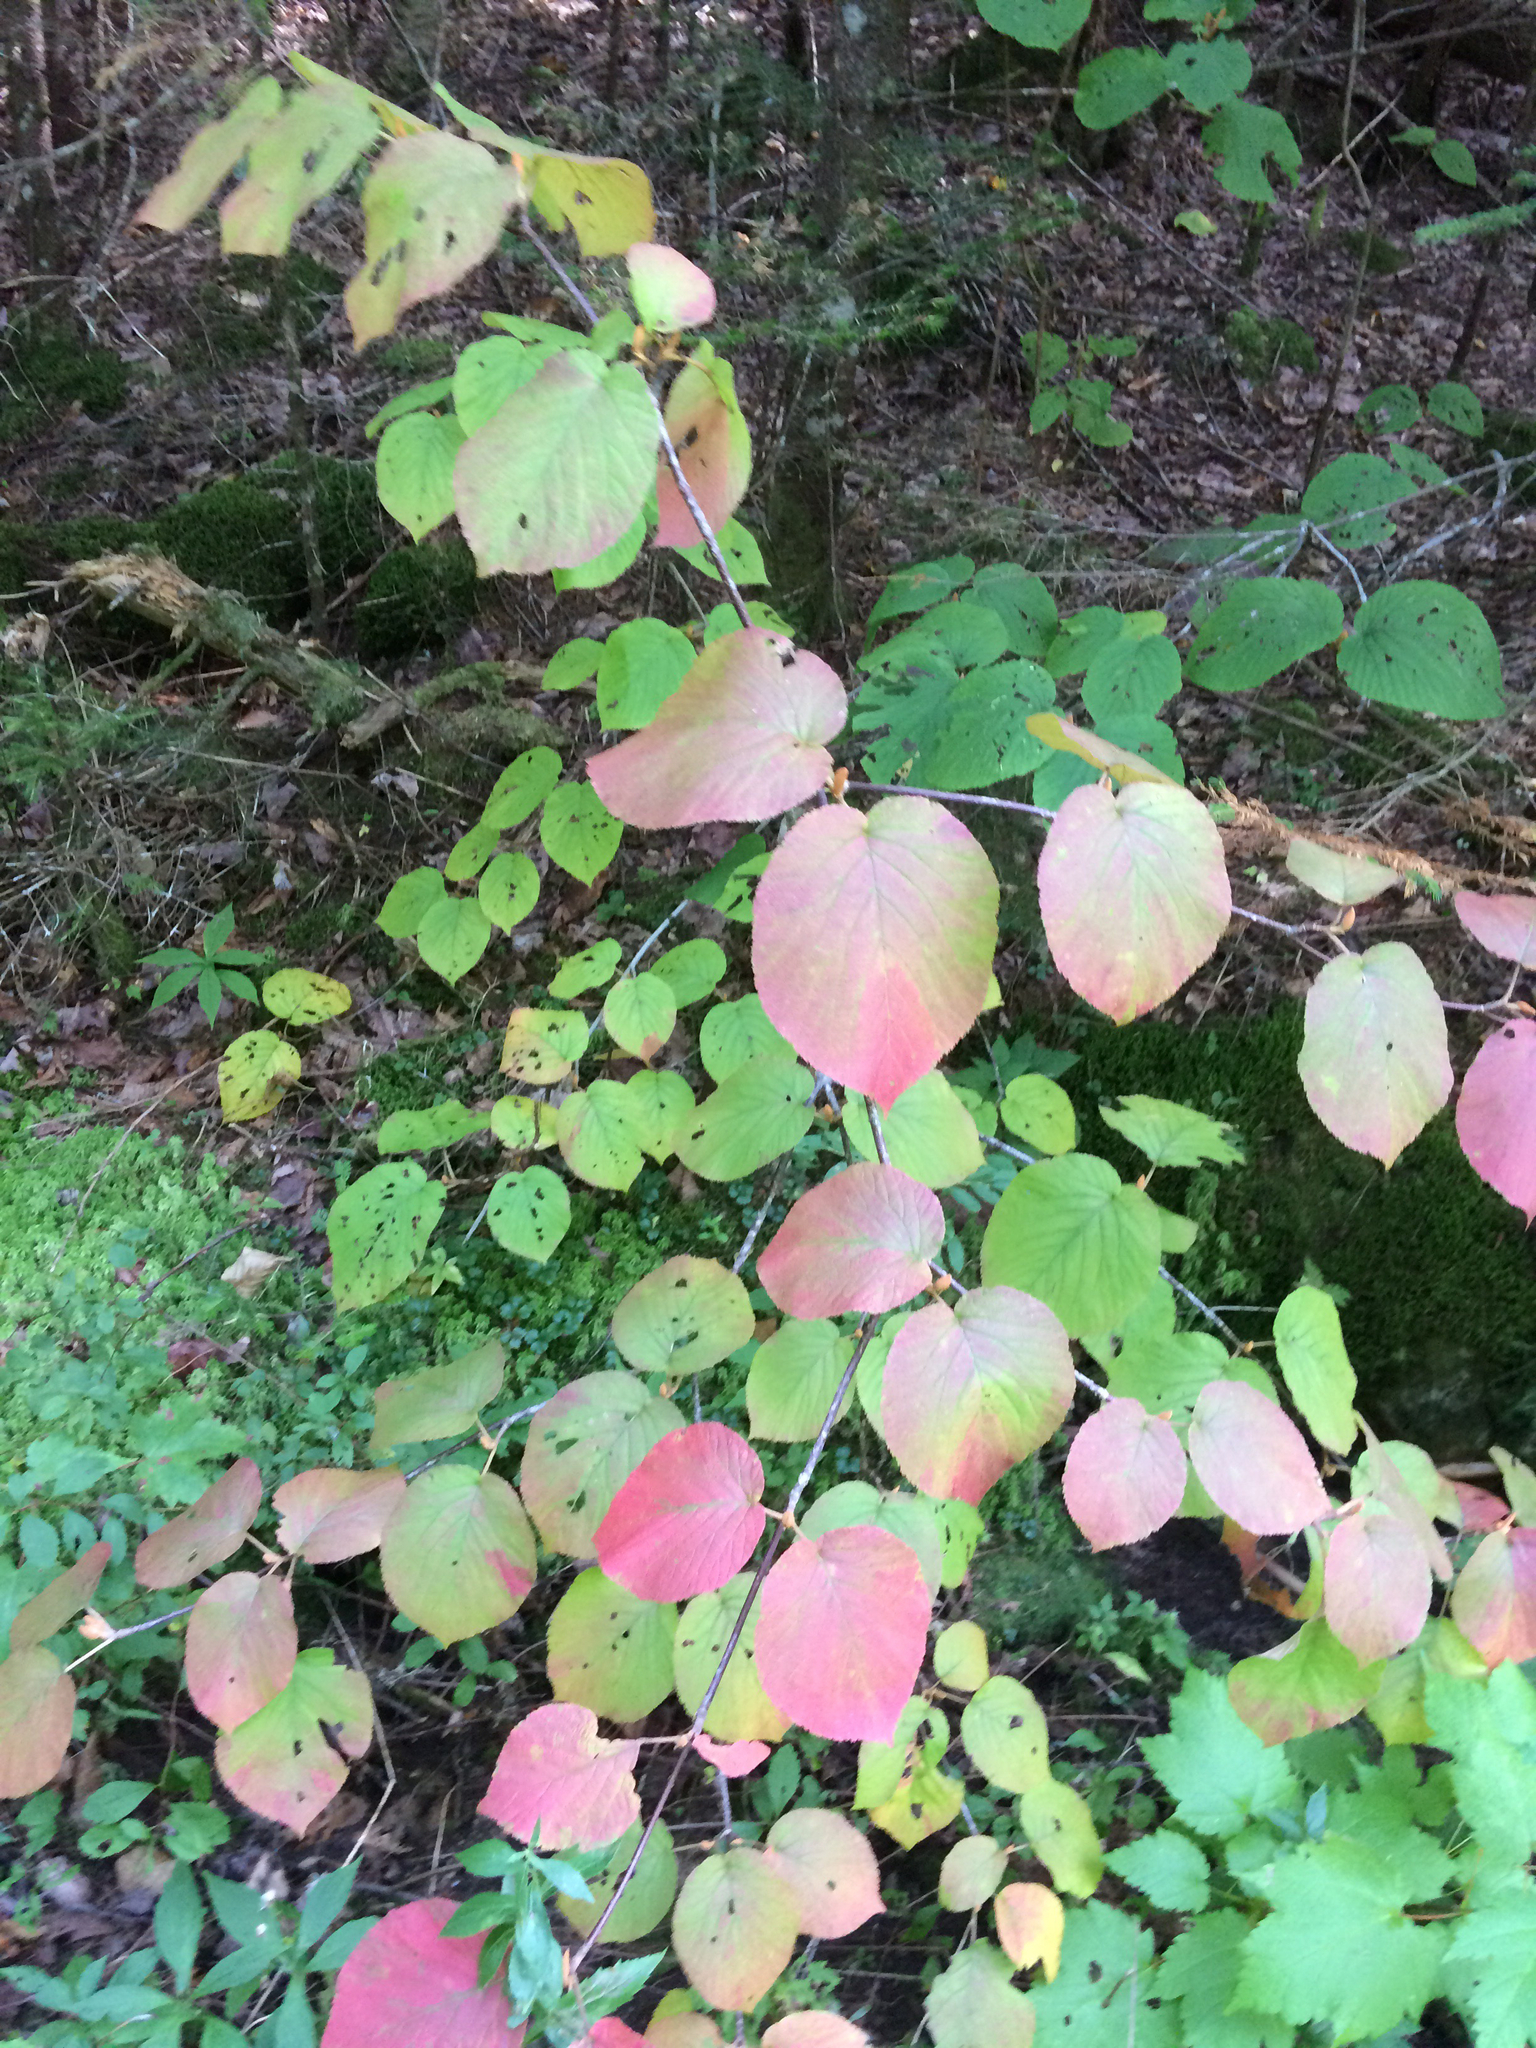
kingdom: Plantae
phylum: Tracheophyta
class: Magnoliopsida
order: Dipsacales
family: Viburnaceae
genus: Viburnum
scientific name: Viburnum lantanoides
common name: Hobblebush
